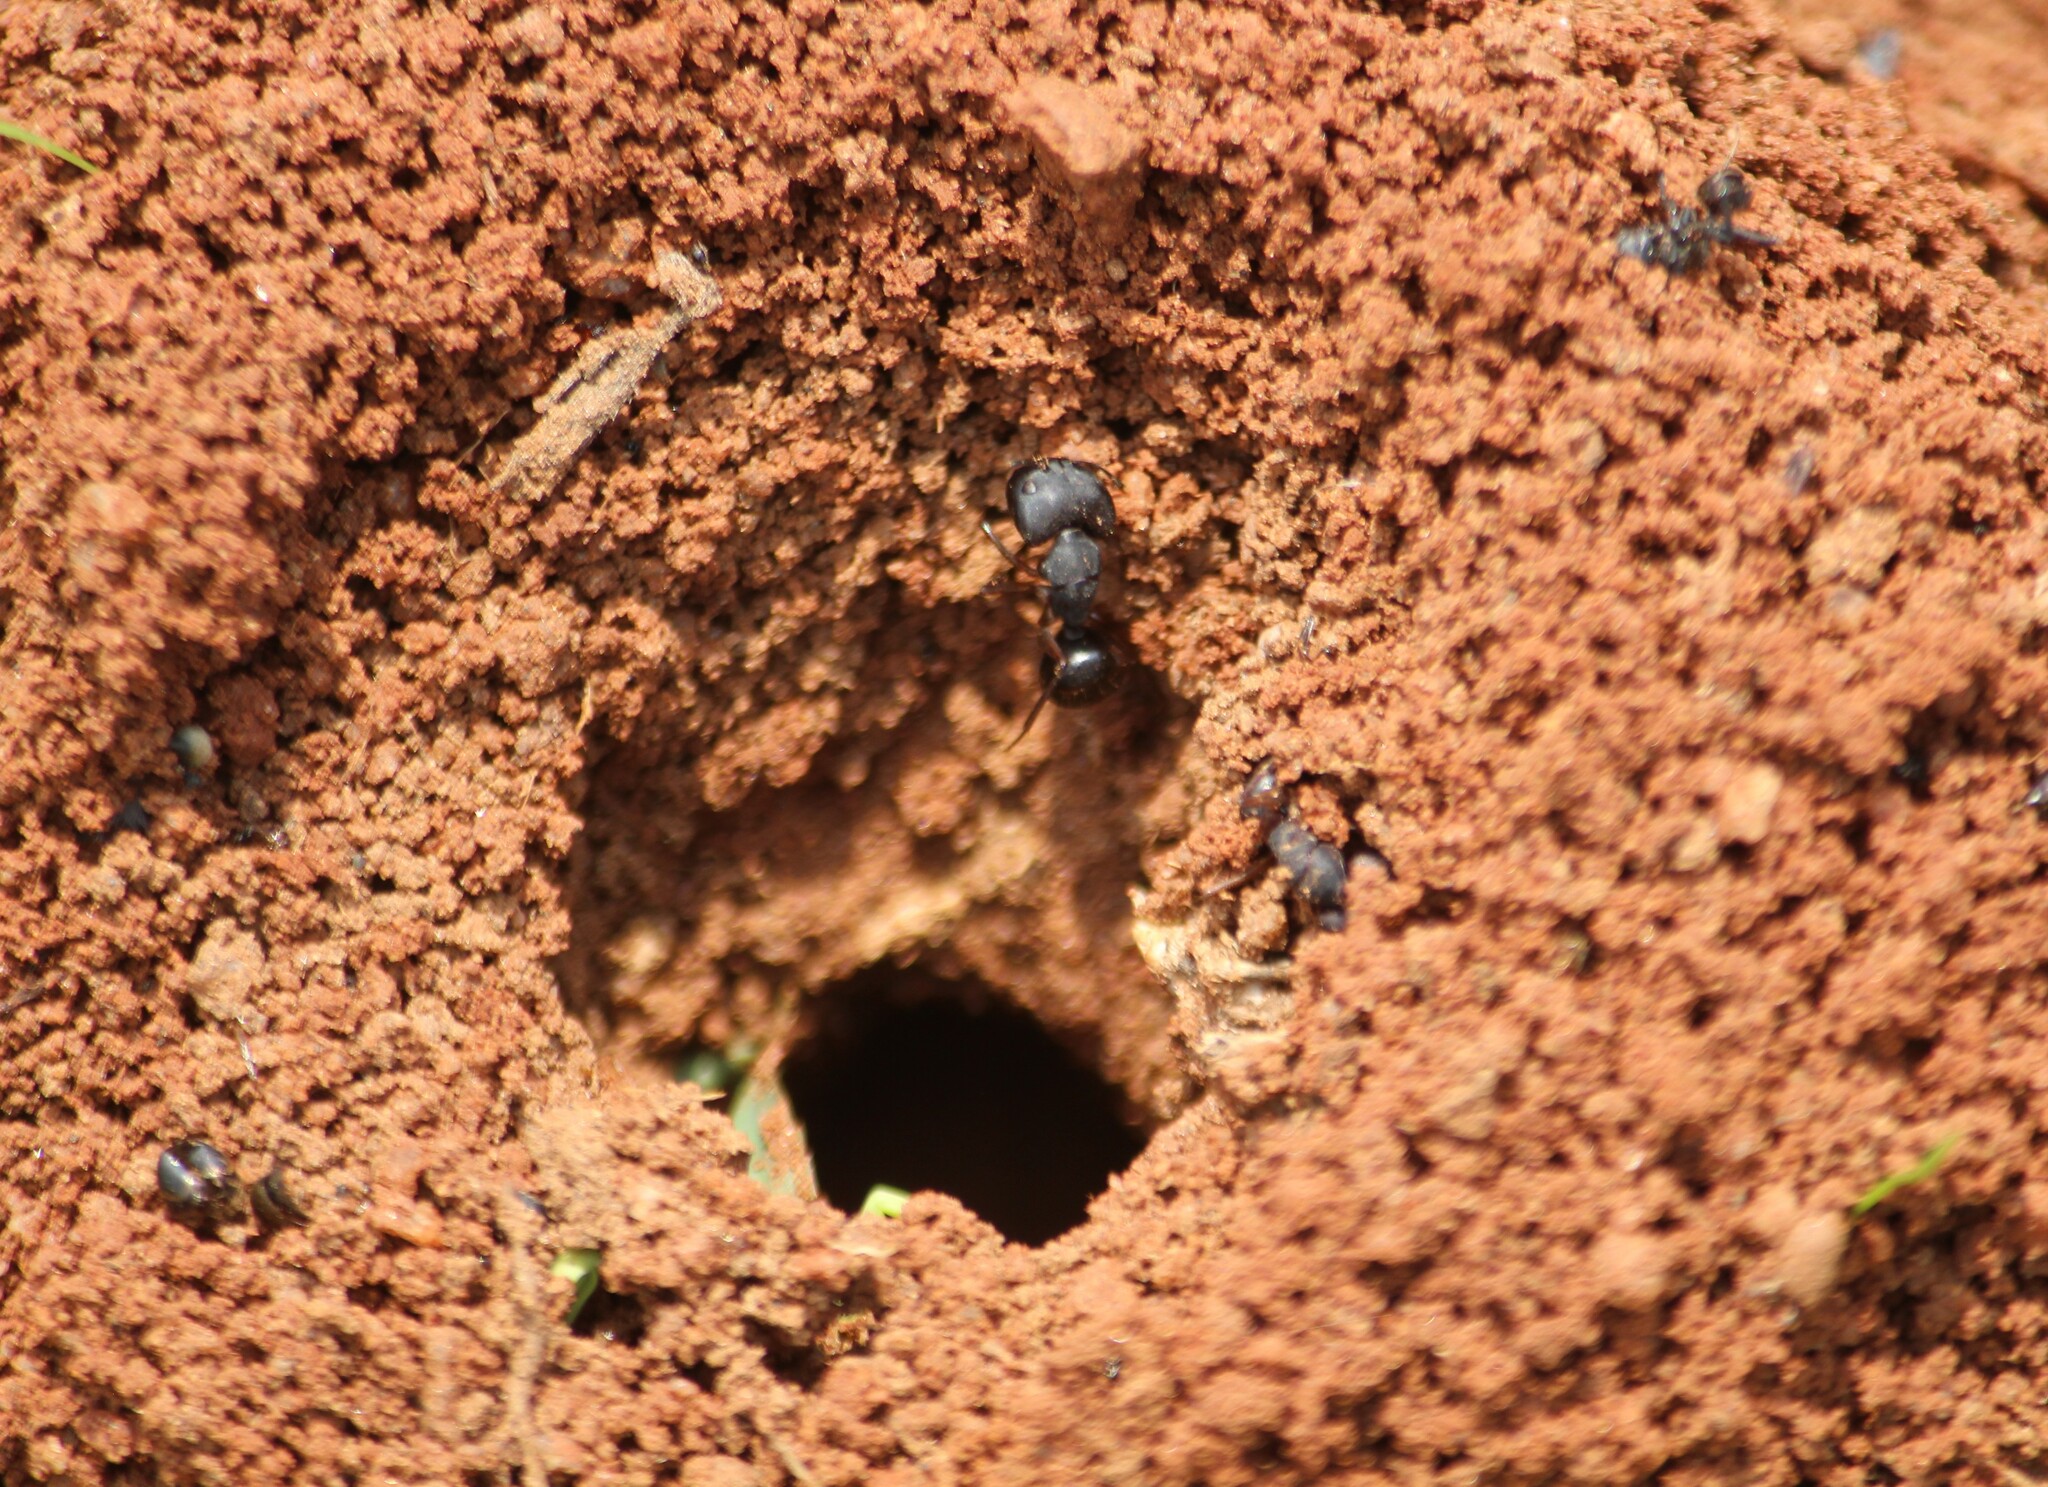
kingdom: Animalia
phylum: Arthropoda
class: Insecta
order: Hymenoptera
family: Formicidae
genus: Camponotus
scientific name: Camponotus compressus
